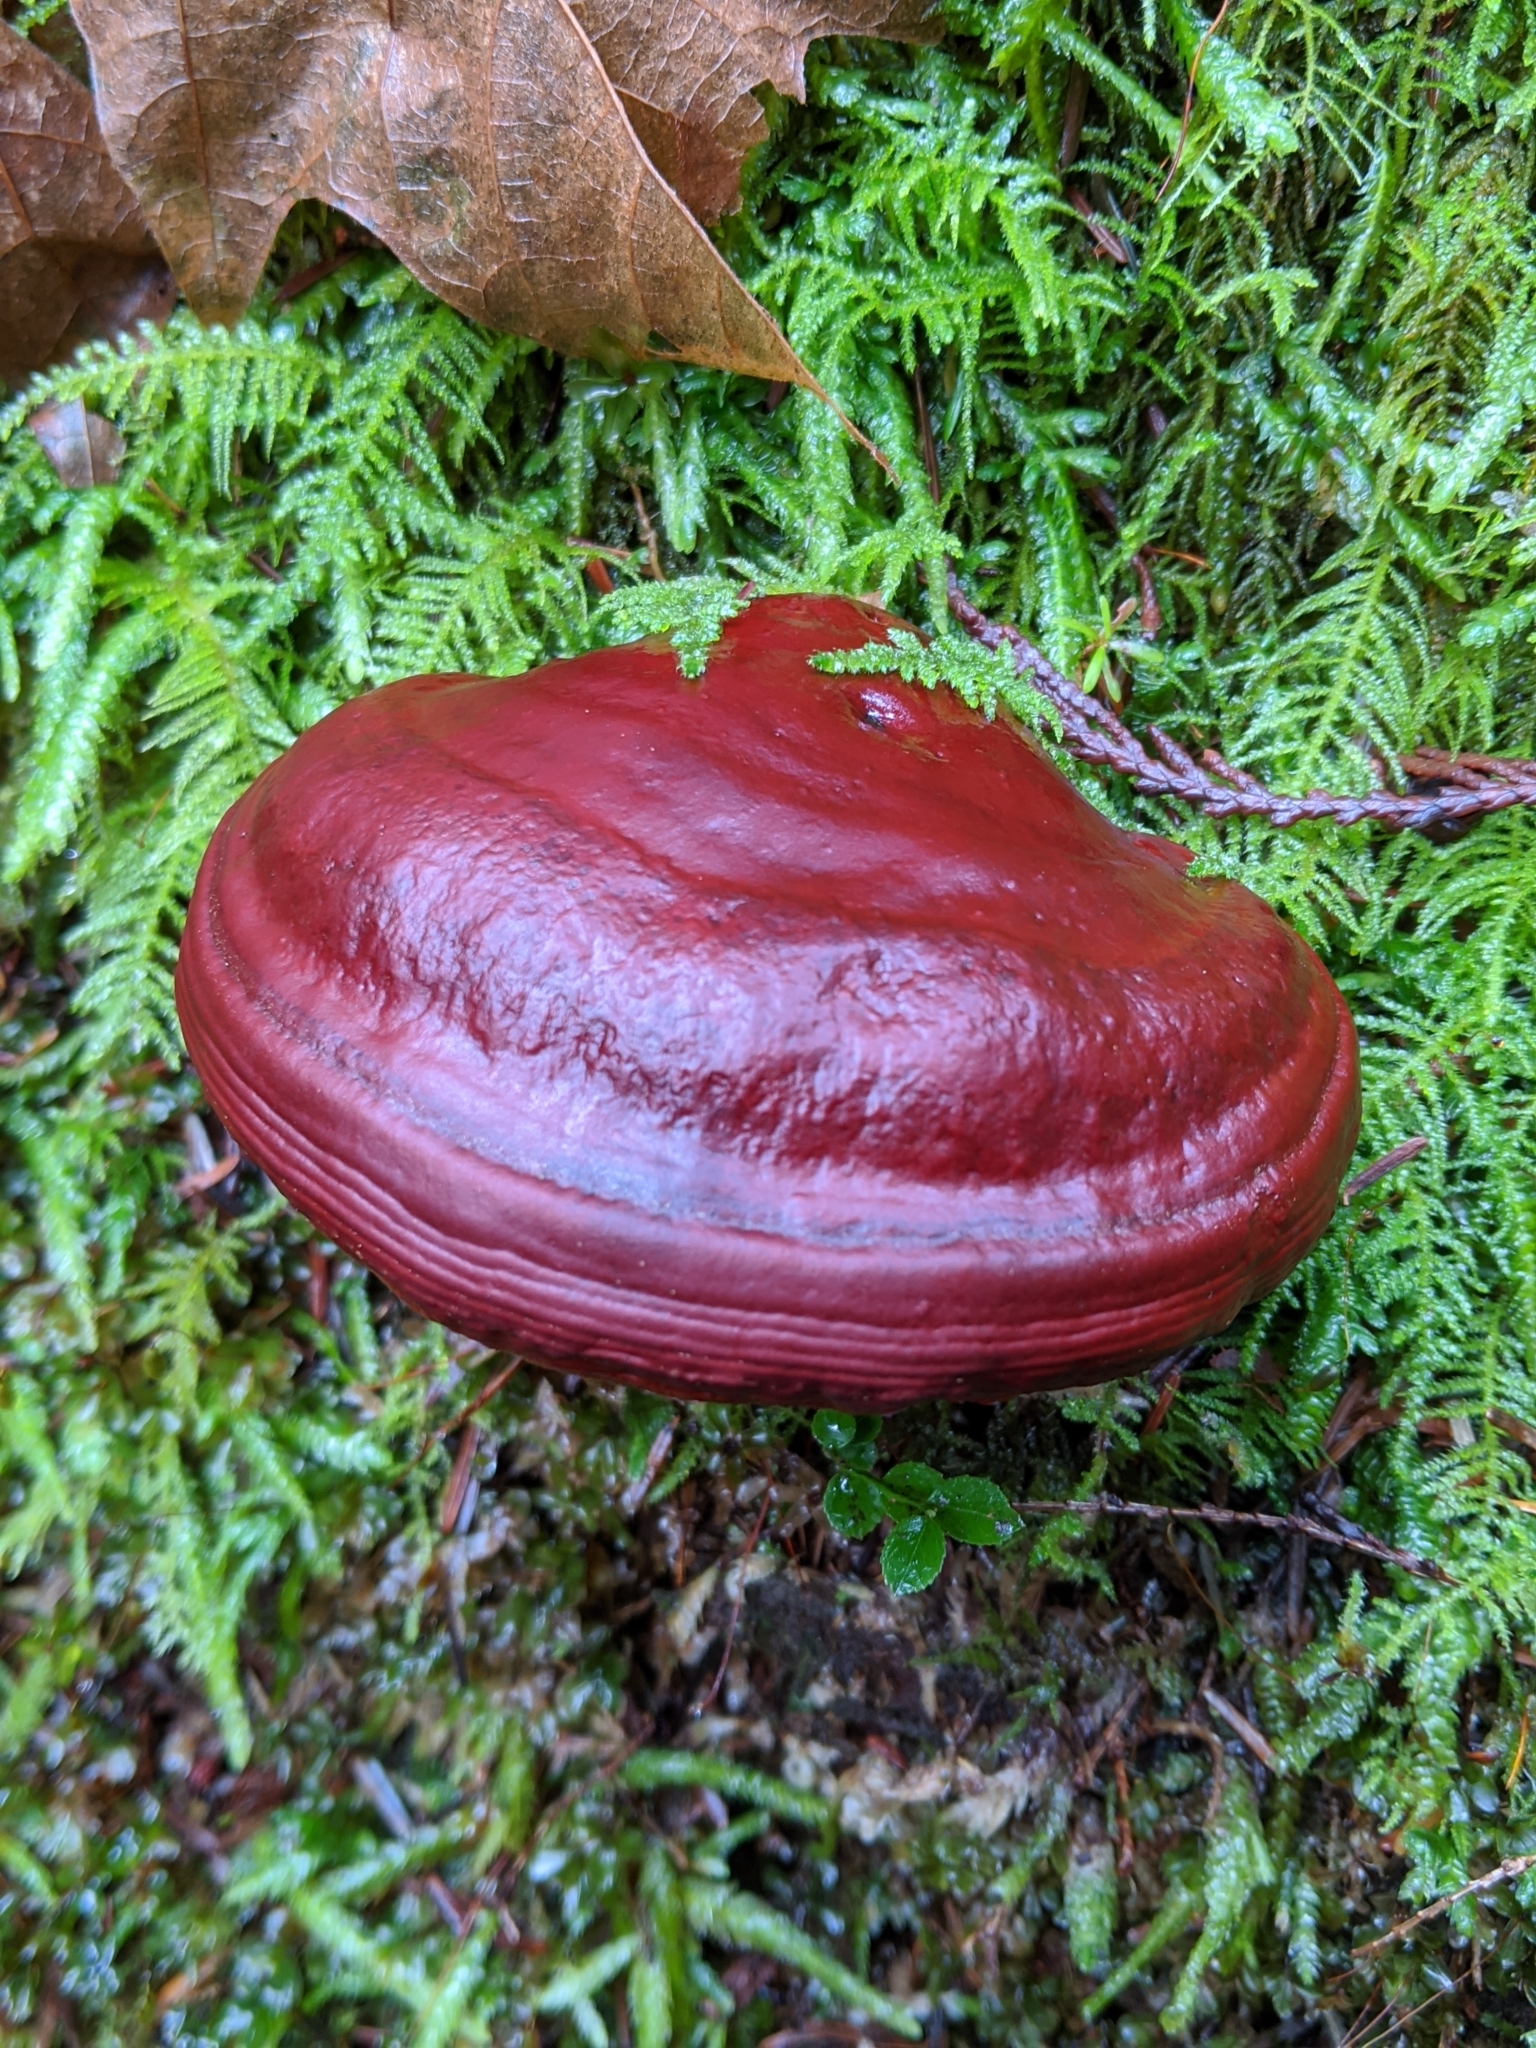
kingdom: Fungi
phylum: Basidiomycota
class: Agaricomycetes
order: Polyporales
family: Polyporaceae
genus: Ganoderma
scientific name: Ganoderma oregonense
